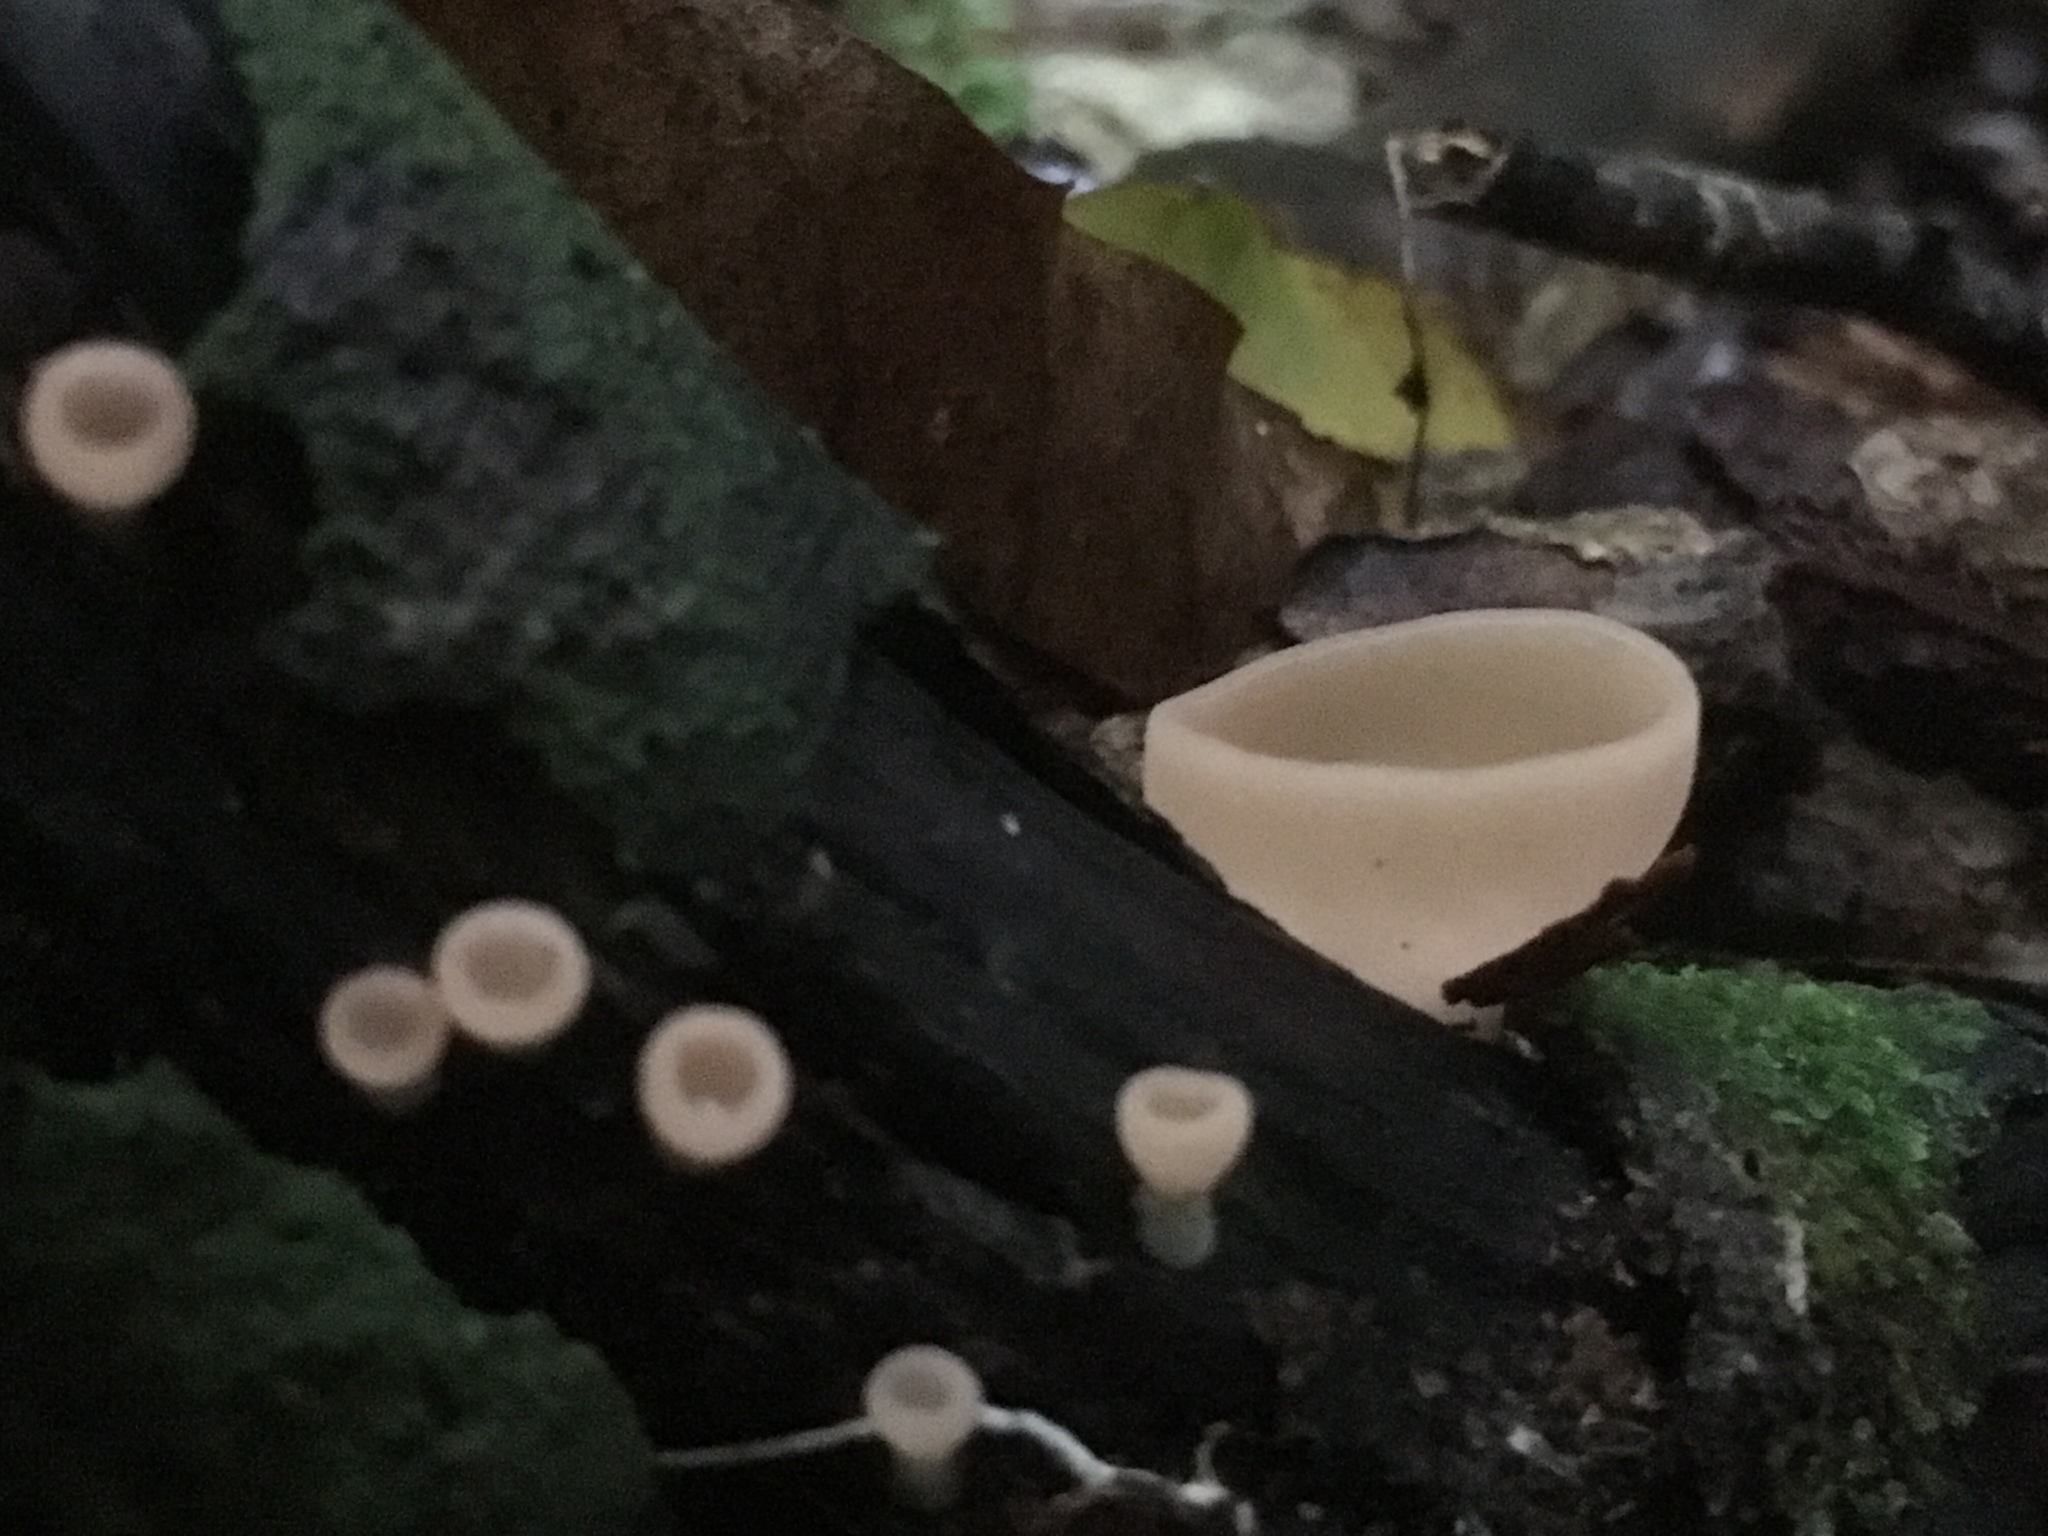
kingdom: Fungi
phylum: Ascomycota
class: Pezizomycetes
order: Pezizales
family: Sarcoscyphaceae
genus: Cookeina
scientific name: Cookeina colensoi
